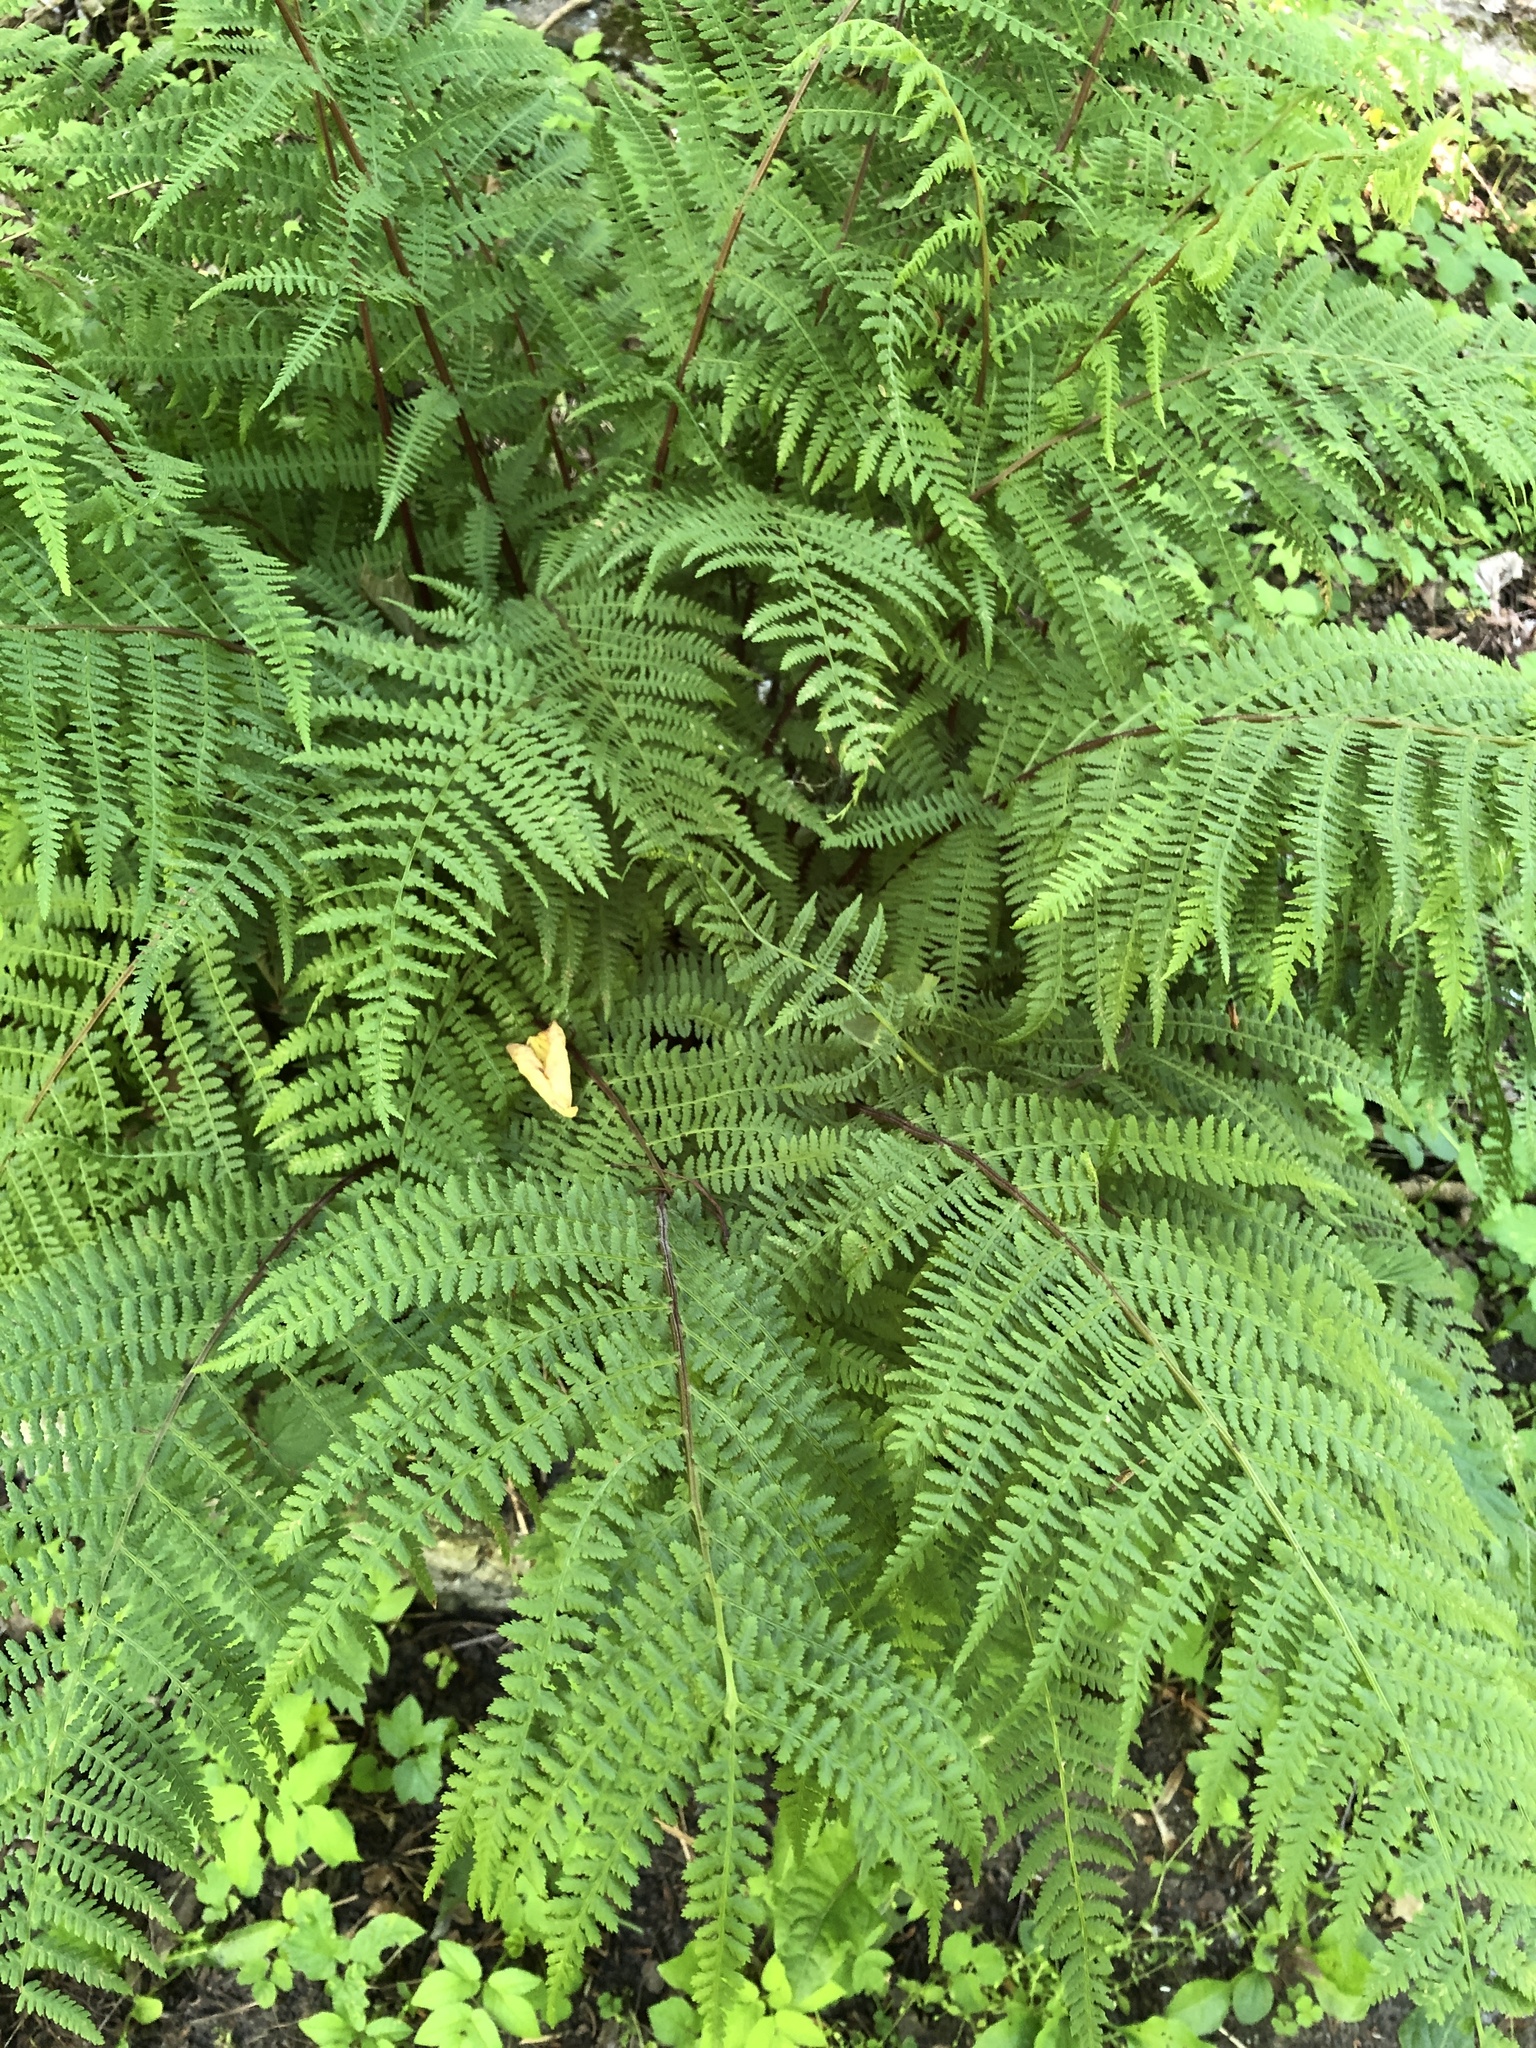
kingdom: Plantae
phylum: Tracheophyta
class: Polypodiopsida
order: Polypodiales
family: Athyriaceae
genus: Athyrium
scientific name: Athyrium filix-femina
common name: Lady fern
